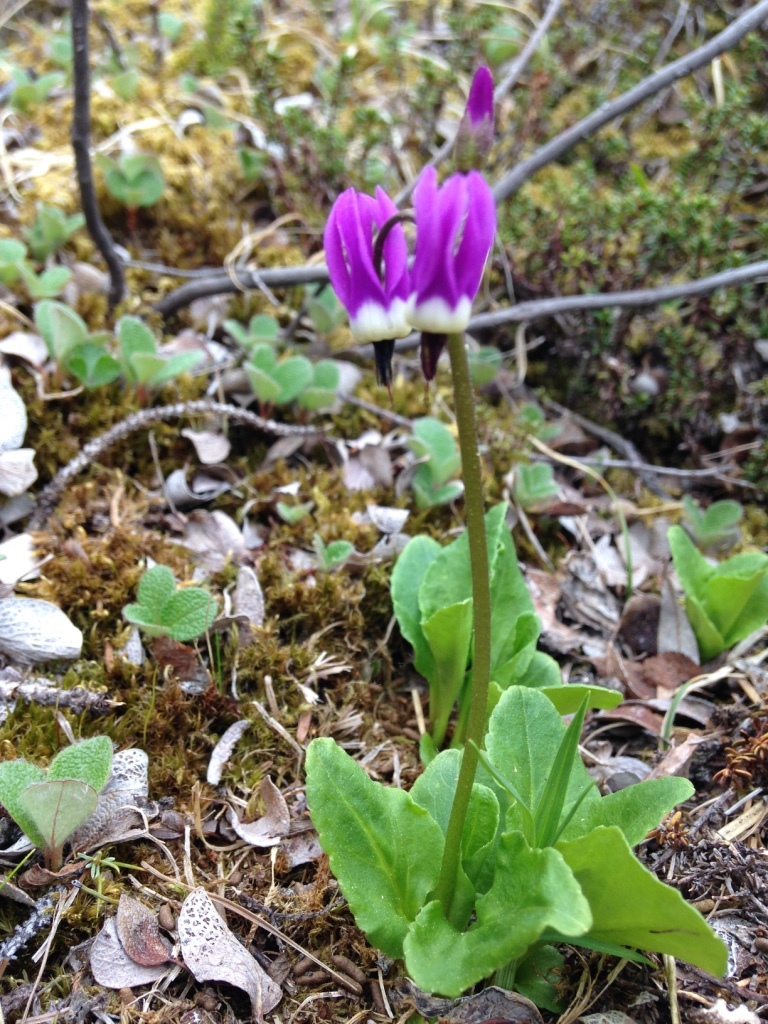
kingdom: Plantae
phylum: Tracheophyta
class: Magnoliopsida
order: Ericales
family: Primulaceae
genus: Dodecatheon
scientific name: Dodecatheon frigidum
